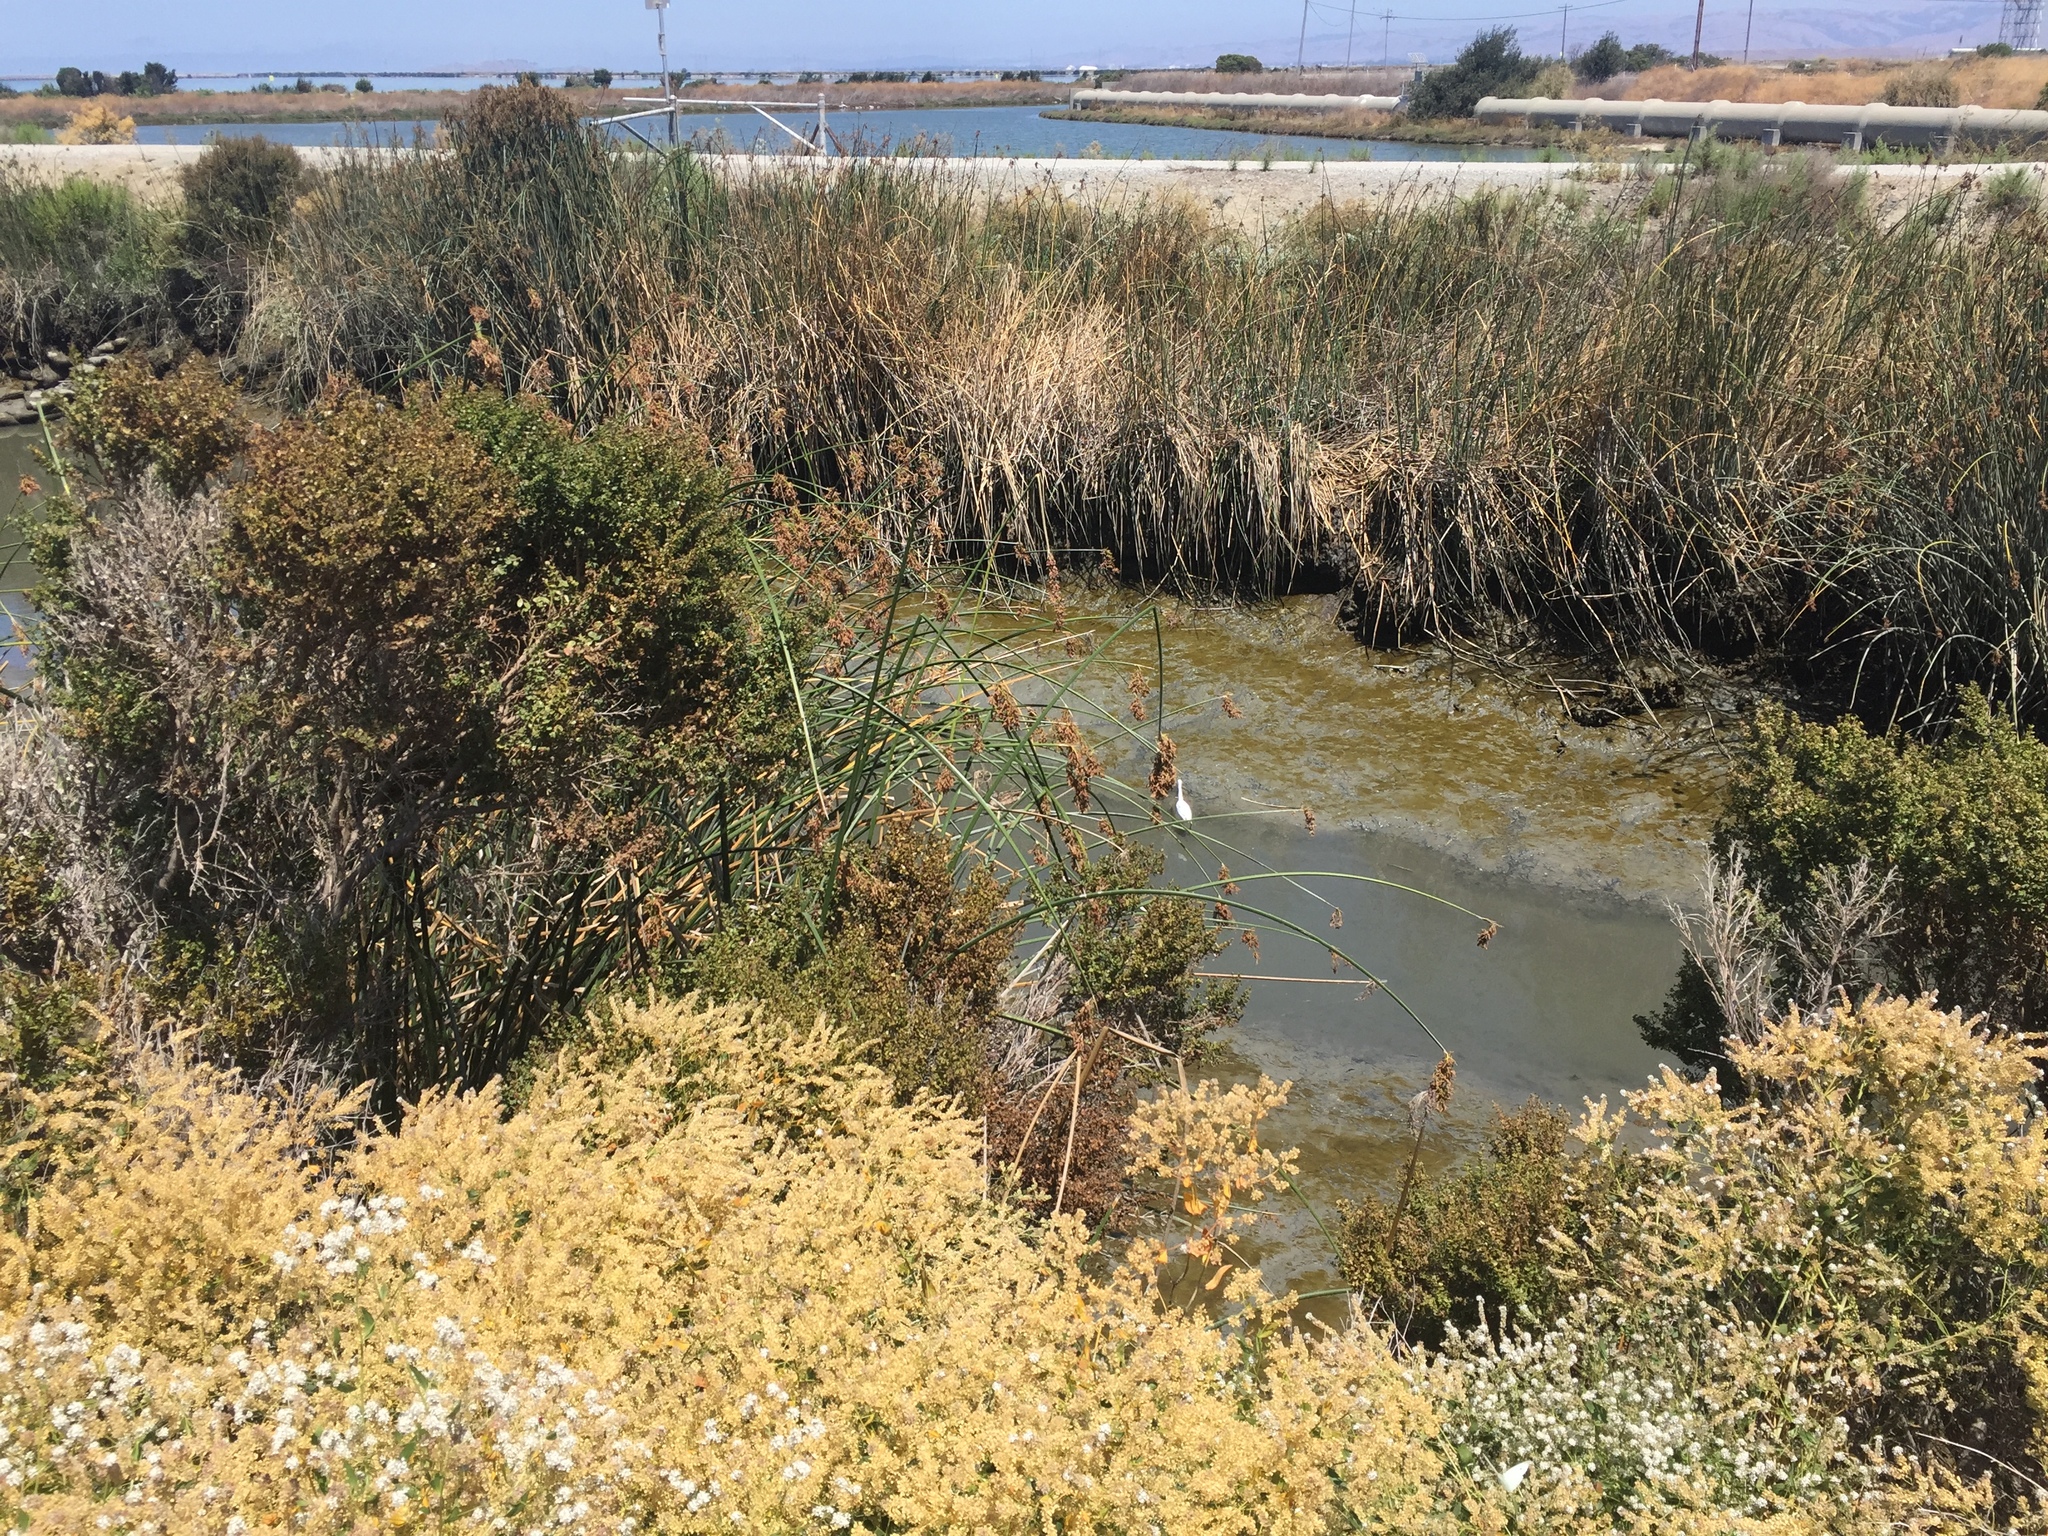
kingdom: Animalia
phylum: Chordata
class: Aves
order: Pelecaniformes
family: Ardeidae
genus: Egretta
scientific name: Egretta thula
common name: Snowy egret
